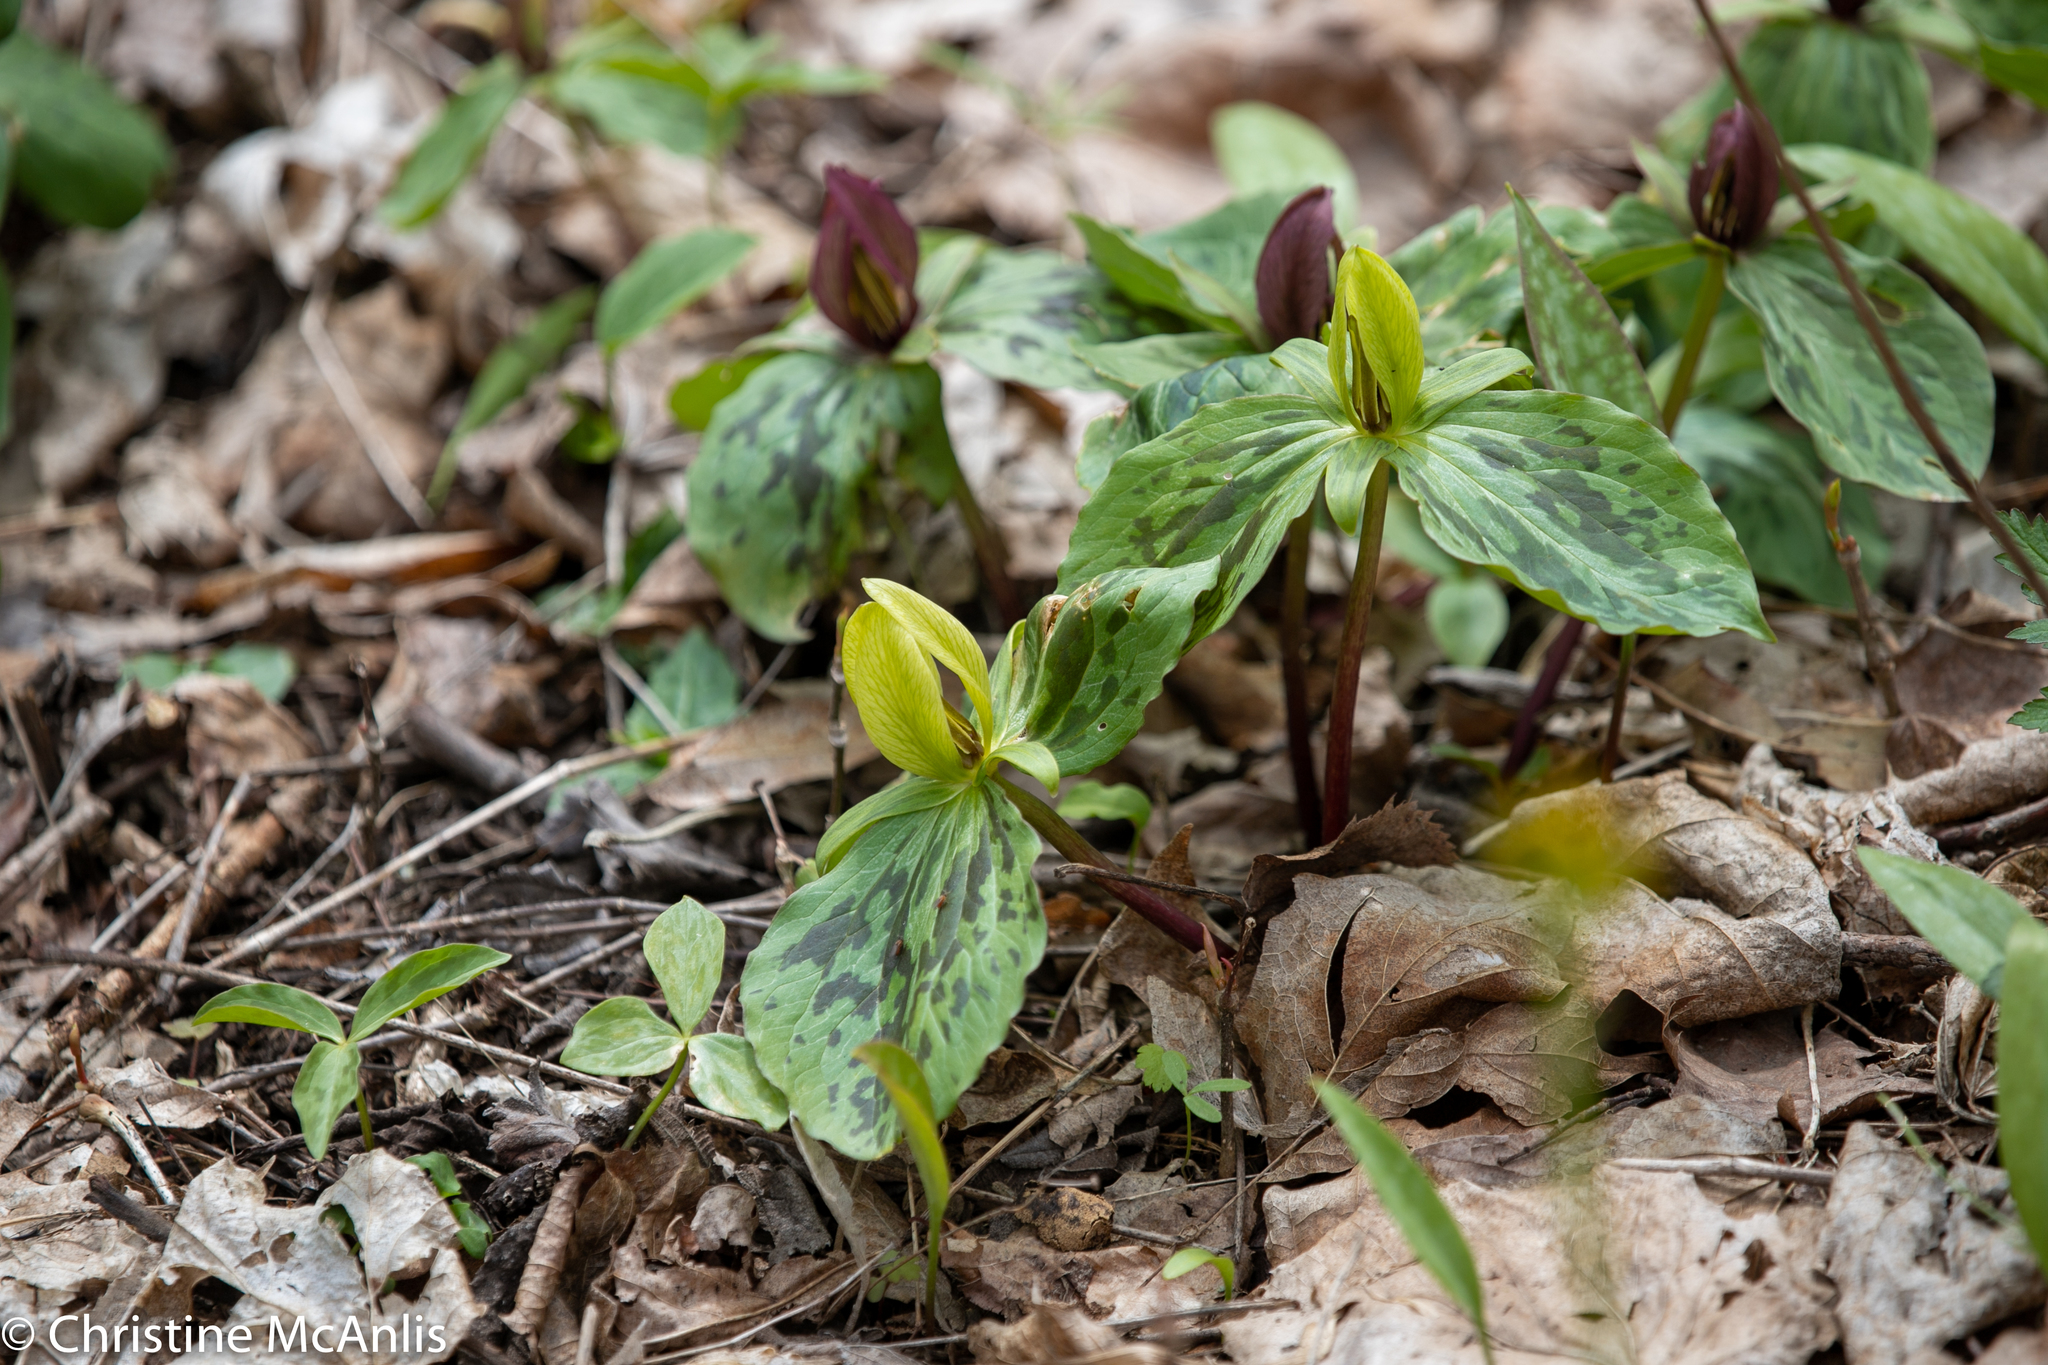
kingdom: Plantae
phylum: Tracheophyta
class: Liliopsida
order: Liliales
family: Melanthiaceae
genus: Trillium
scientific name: Trillium sessile
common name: Sessile trillium
